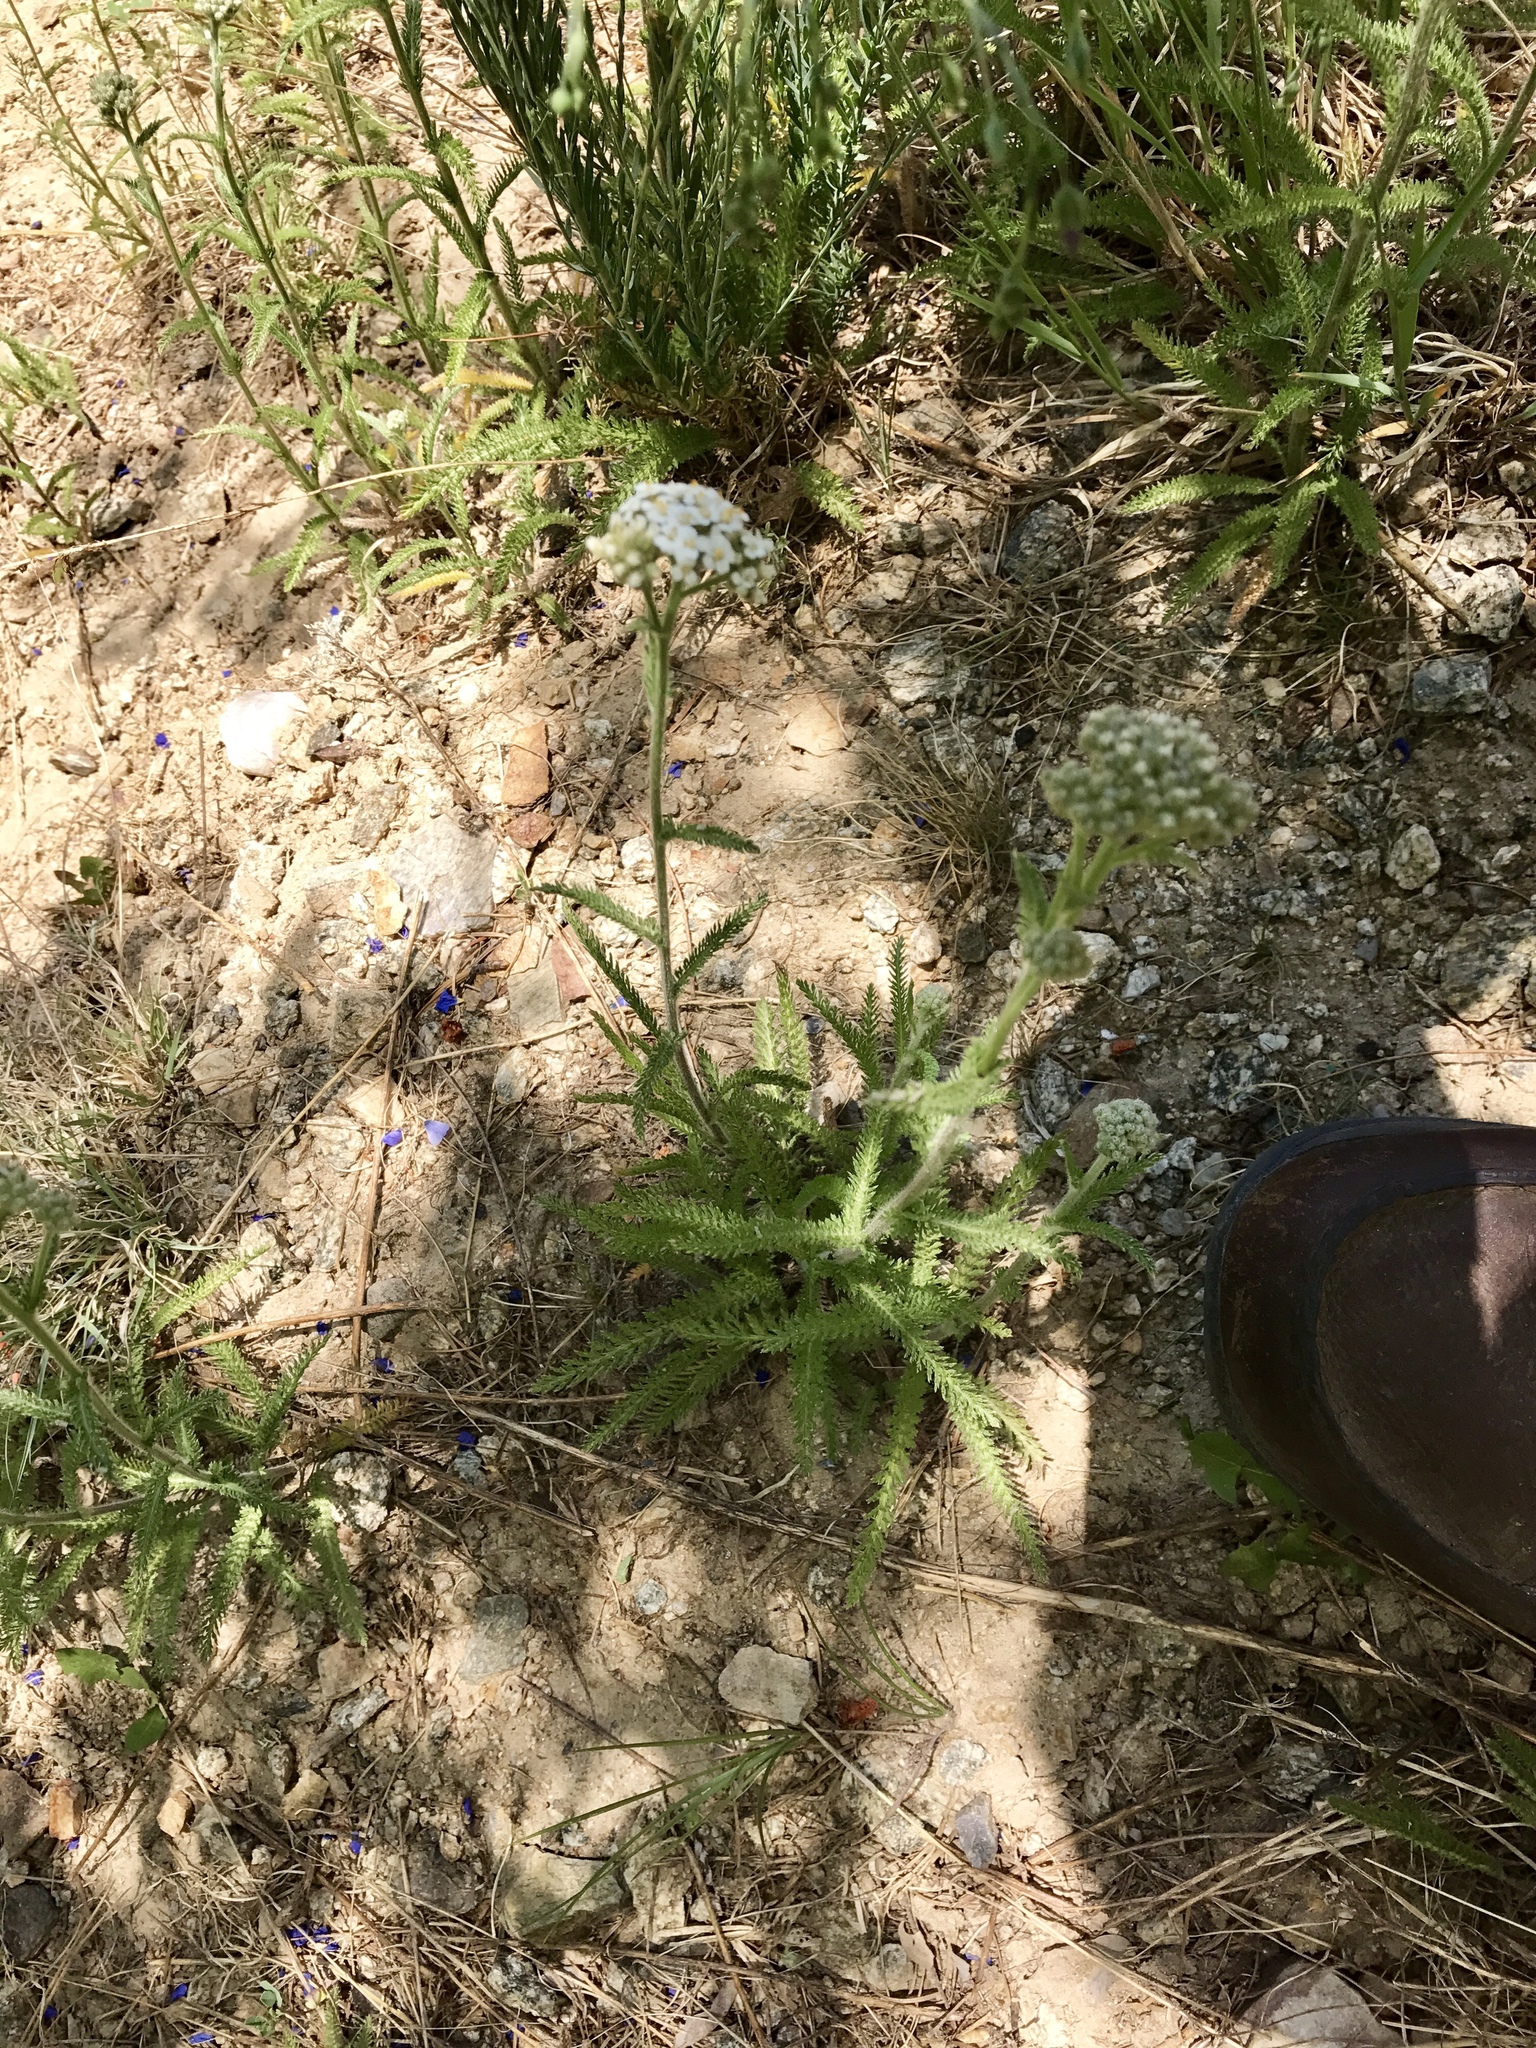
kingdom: Plantae
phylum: Tracheophyta
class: Magnoliopsida
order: Asterales
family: Asteraceae
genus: Achillea
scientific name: Achillea millefolium
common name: Yarrow
